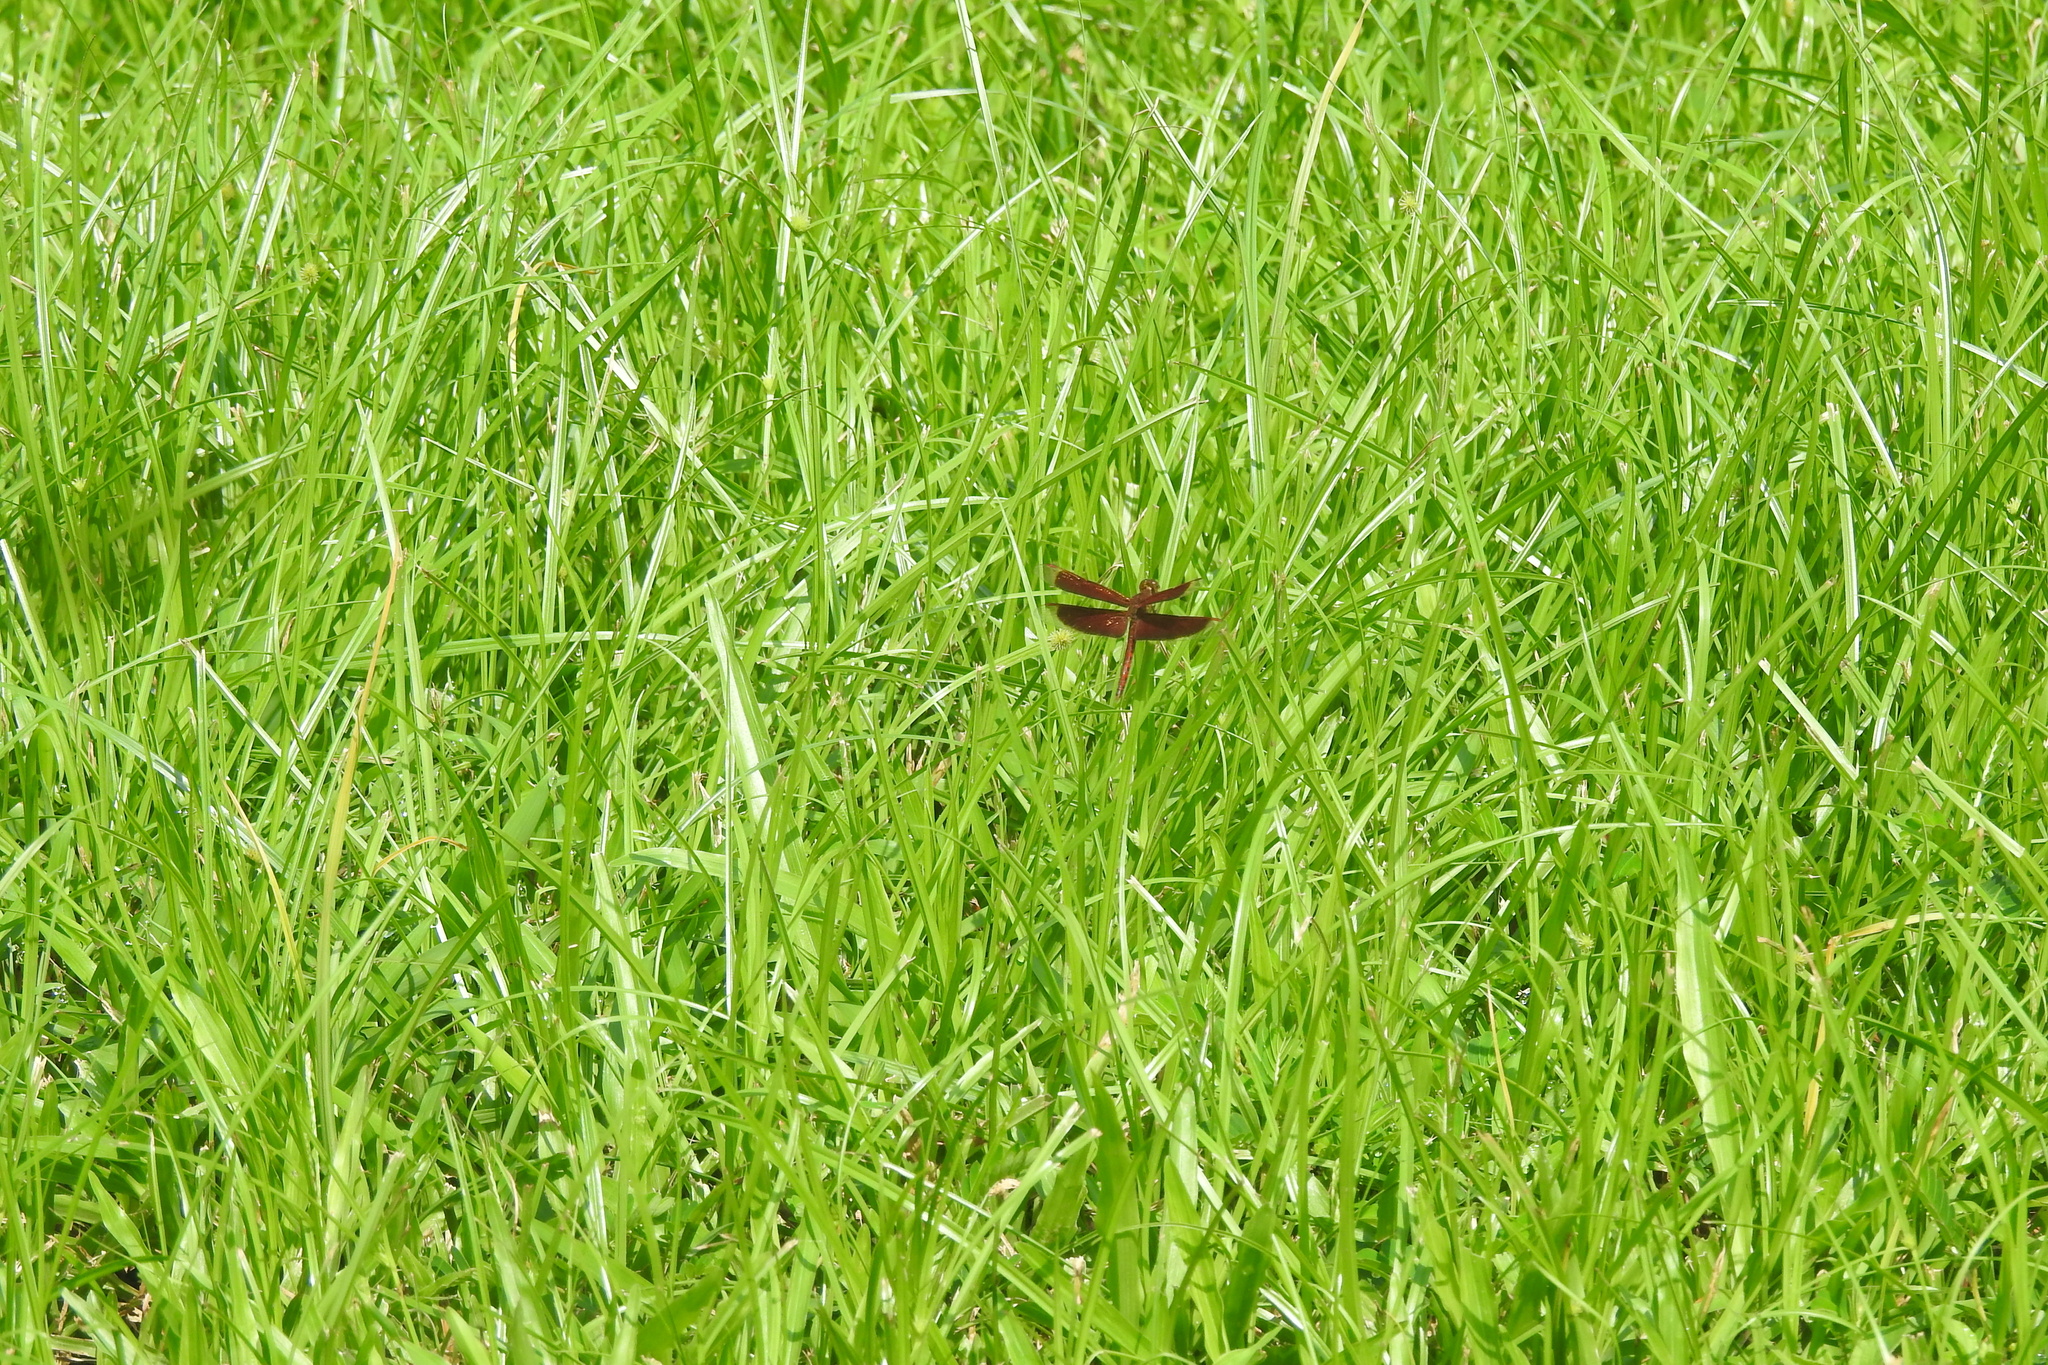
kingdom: Animalia
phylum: Arthropoda
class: Insecta
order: Odonata
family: Libellulidae
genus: Neurothemis
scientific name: Neurothemis fluctuans
